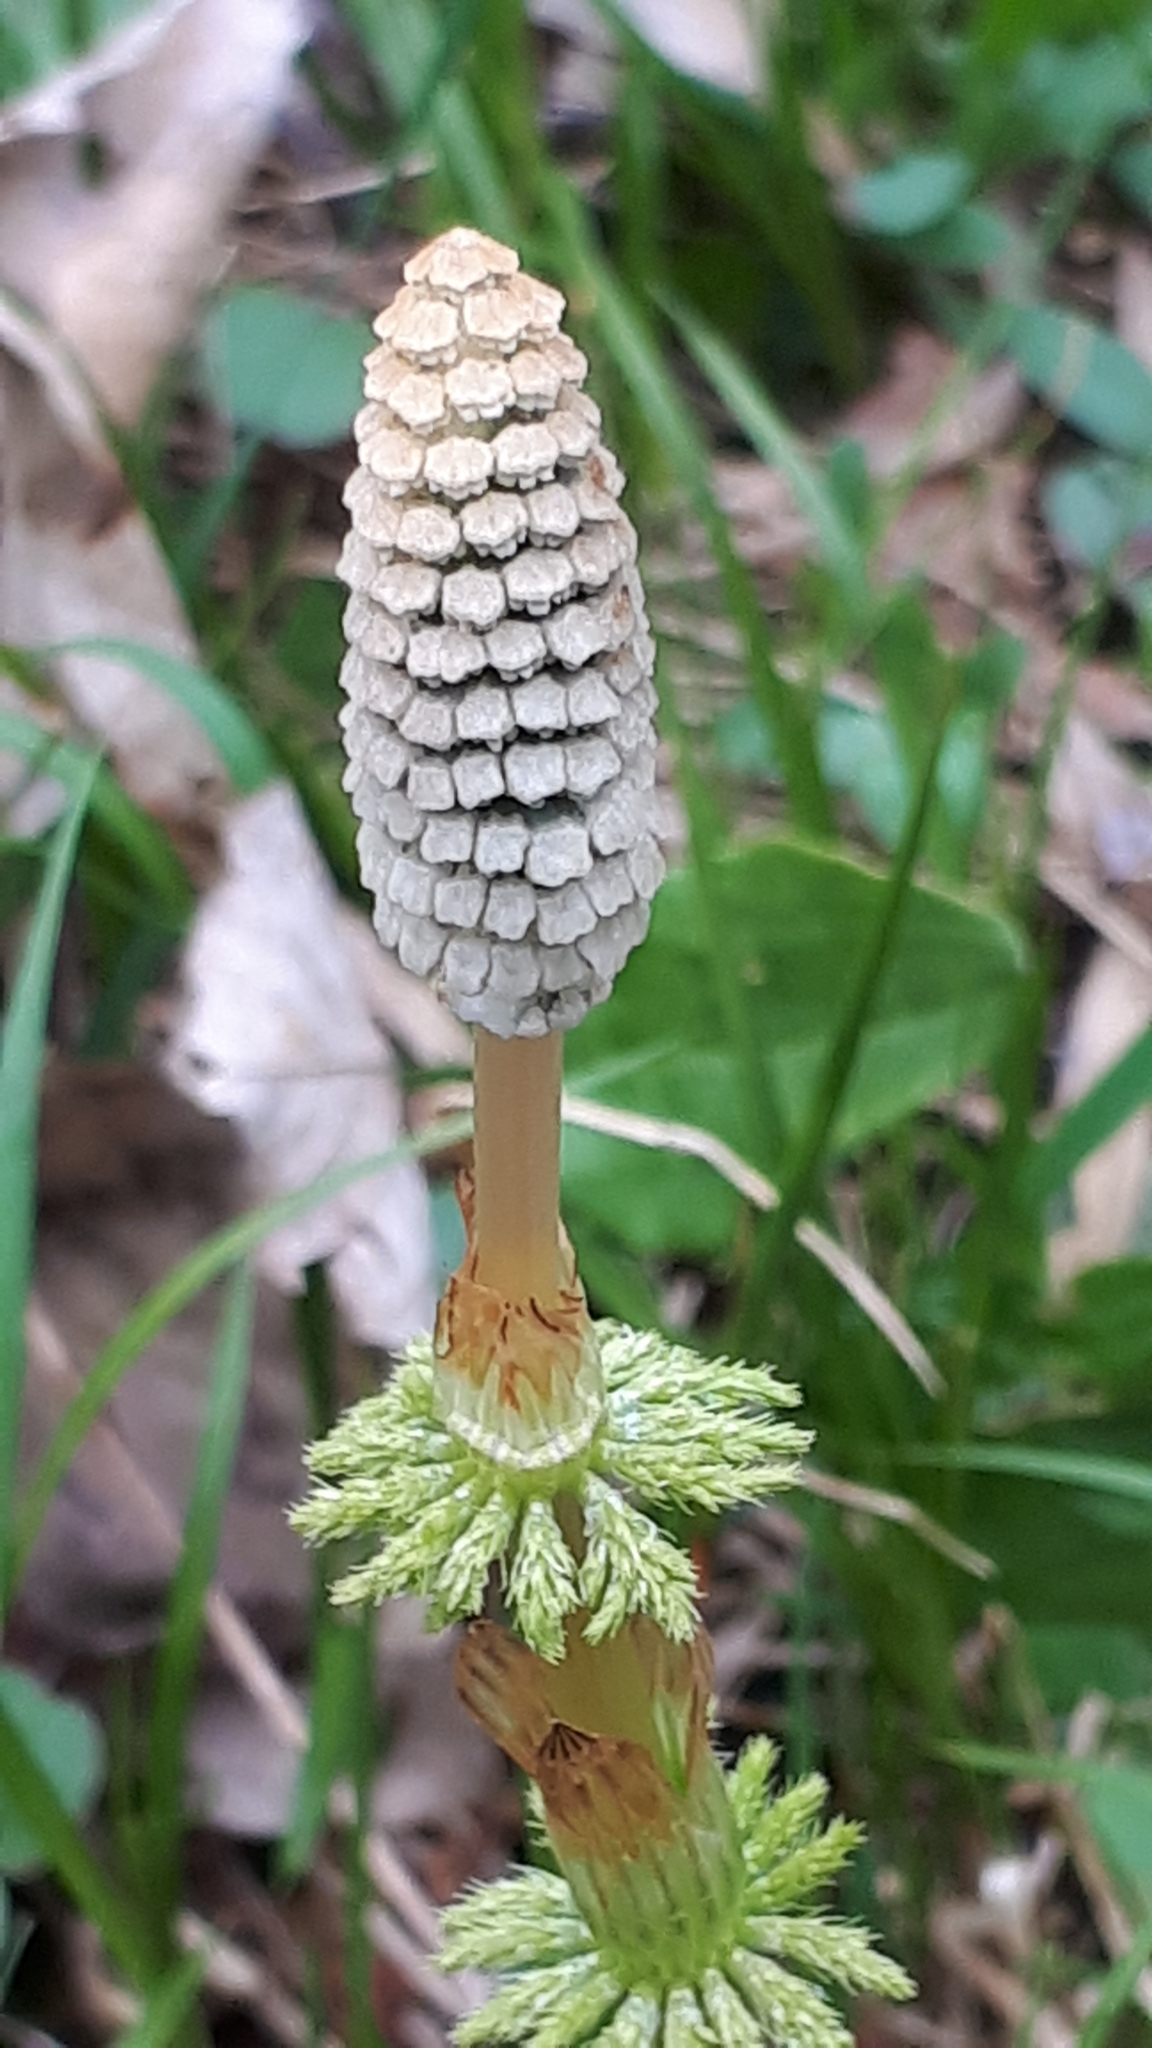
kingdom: Plantae
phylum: Tracheophyta
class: Polypodiopsida
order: Equisetales
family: Equisetaceae
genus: Equisetum
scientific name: Equisetum sylvaticum
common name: Wood horsetail
